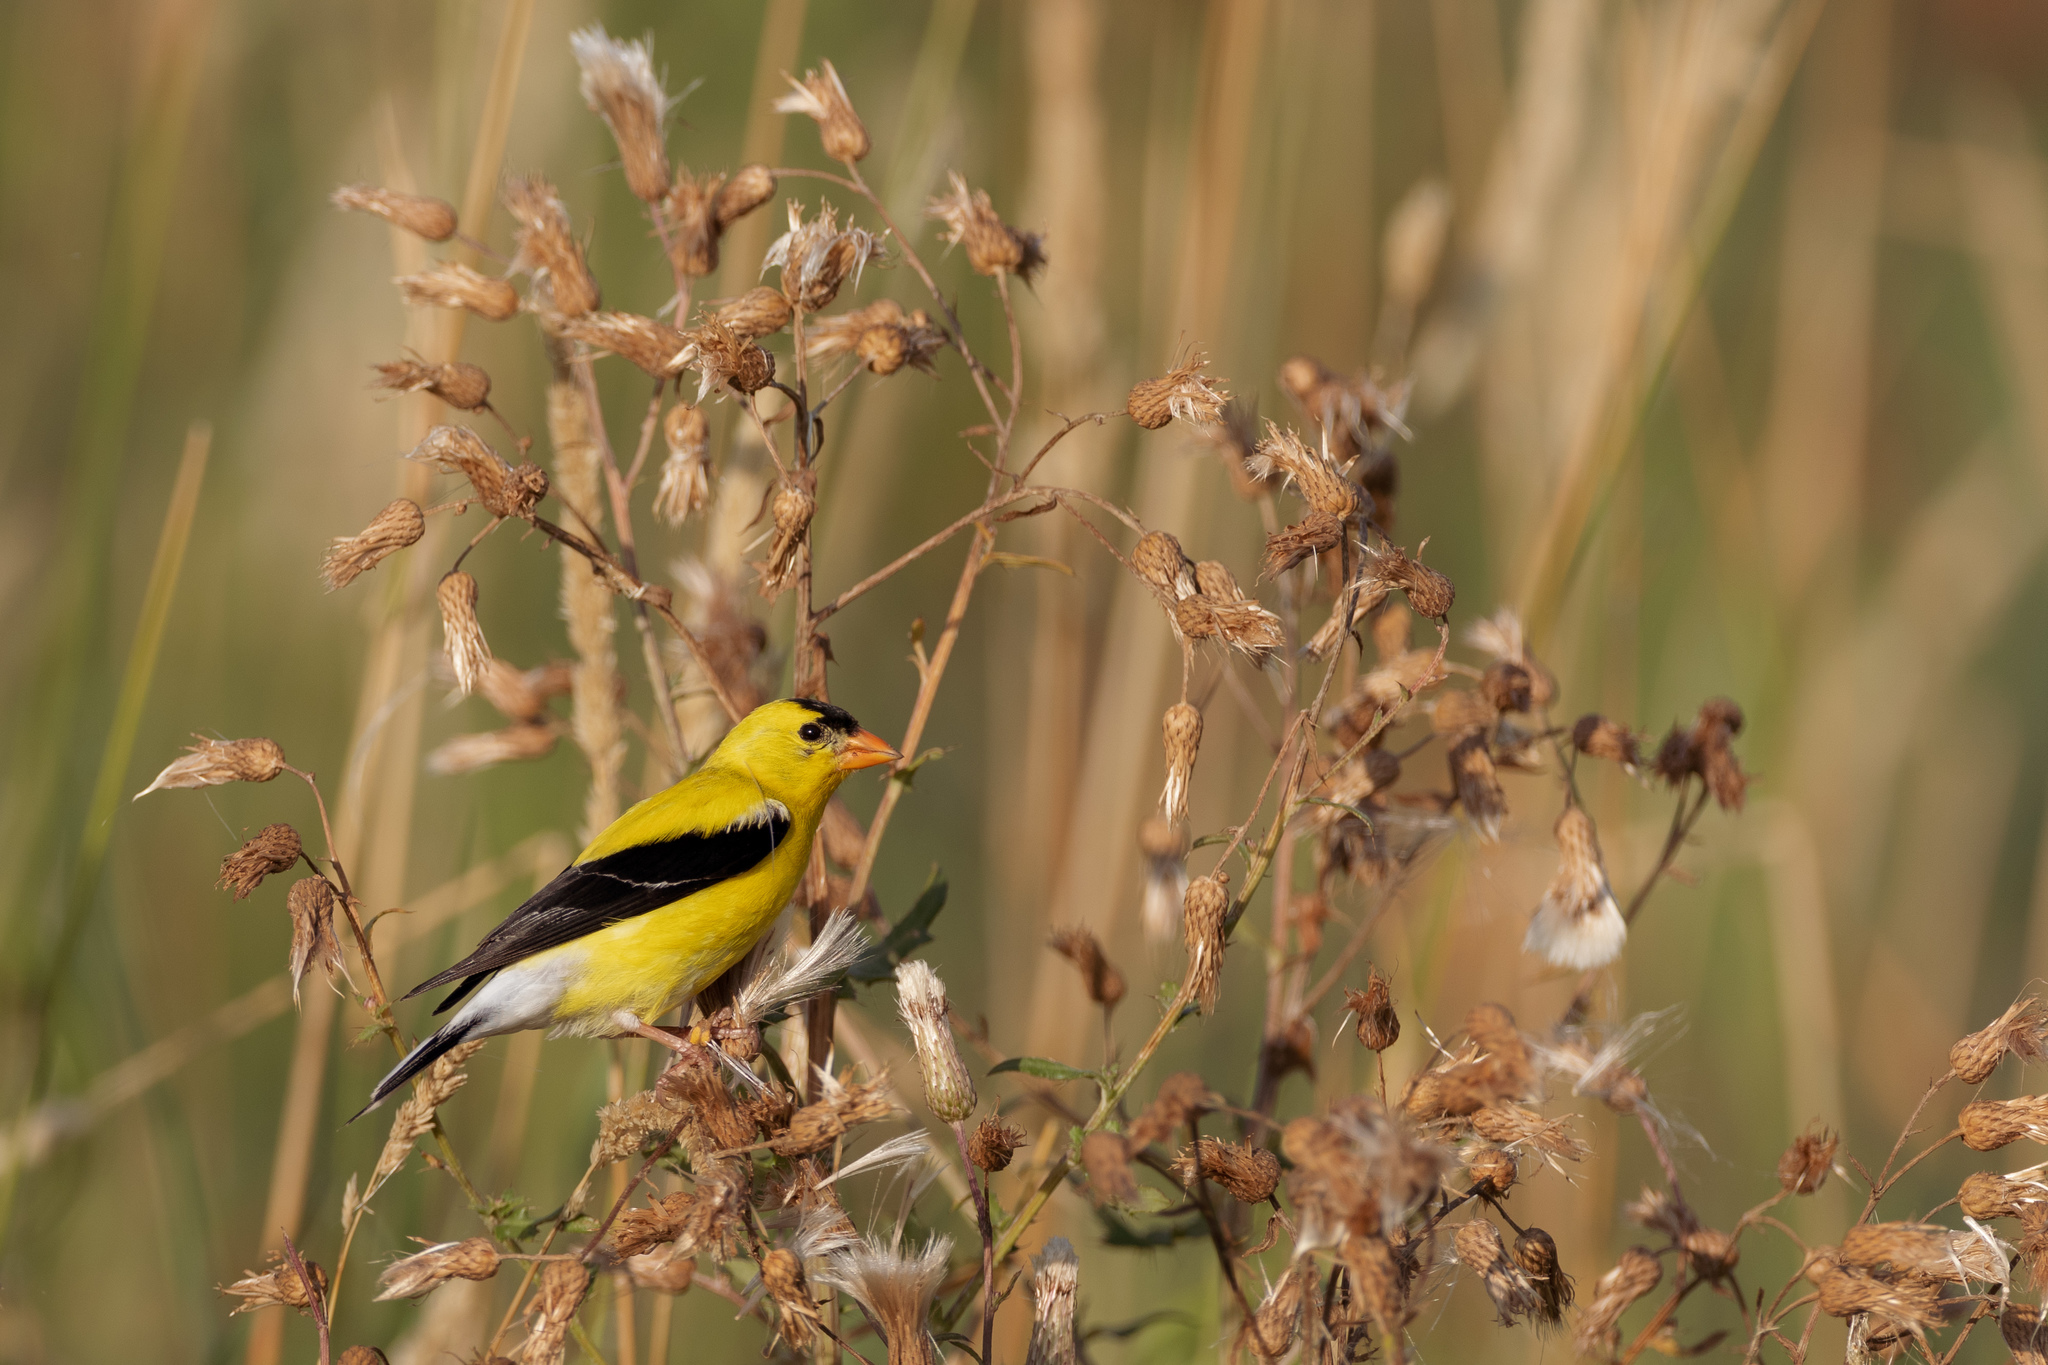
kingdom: Animalia
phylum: Chordata
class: Aves
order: Passeriformes
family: Fringillidae
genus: Spinus
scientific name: Spinus tristis
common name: American goldfinch
